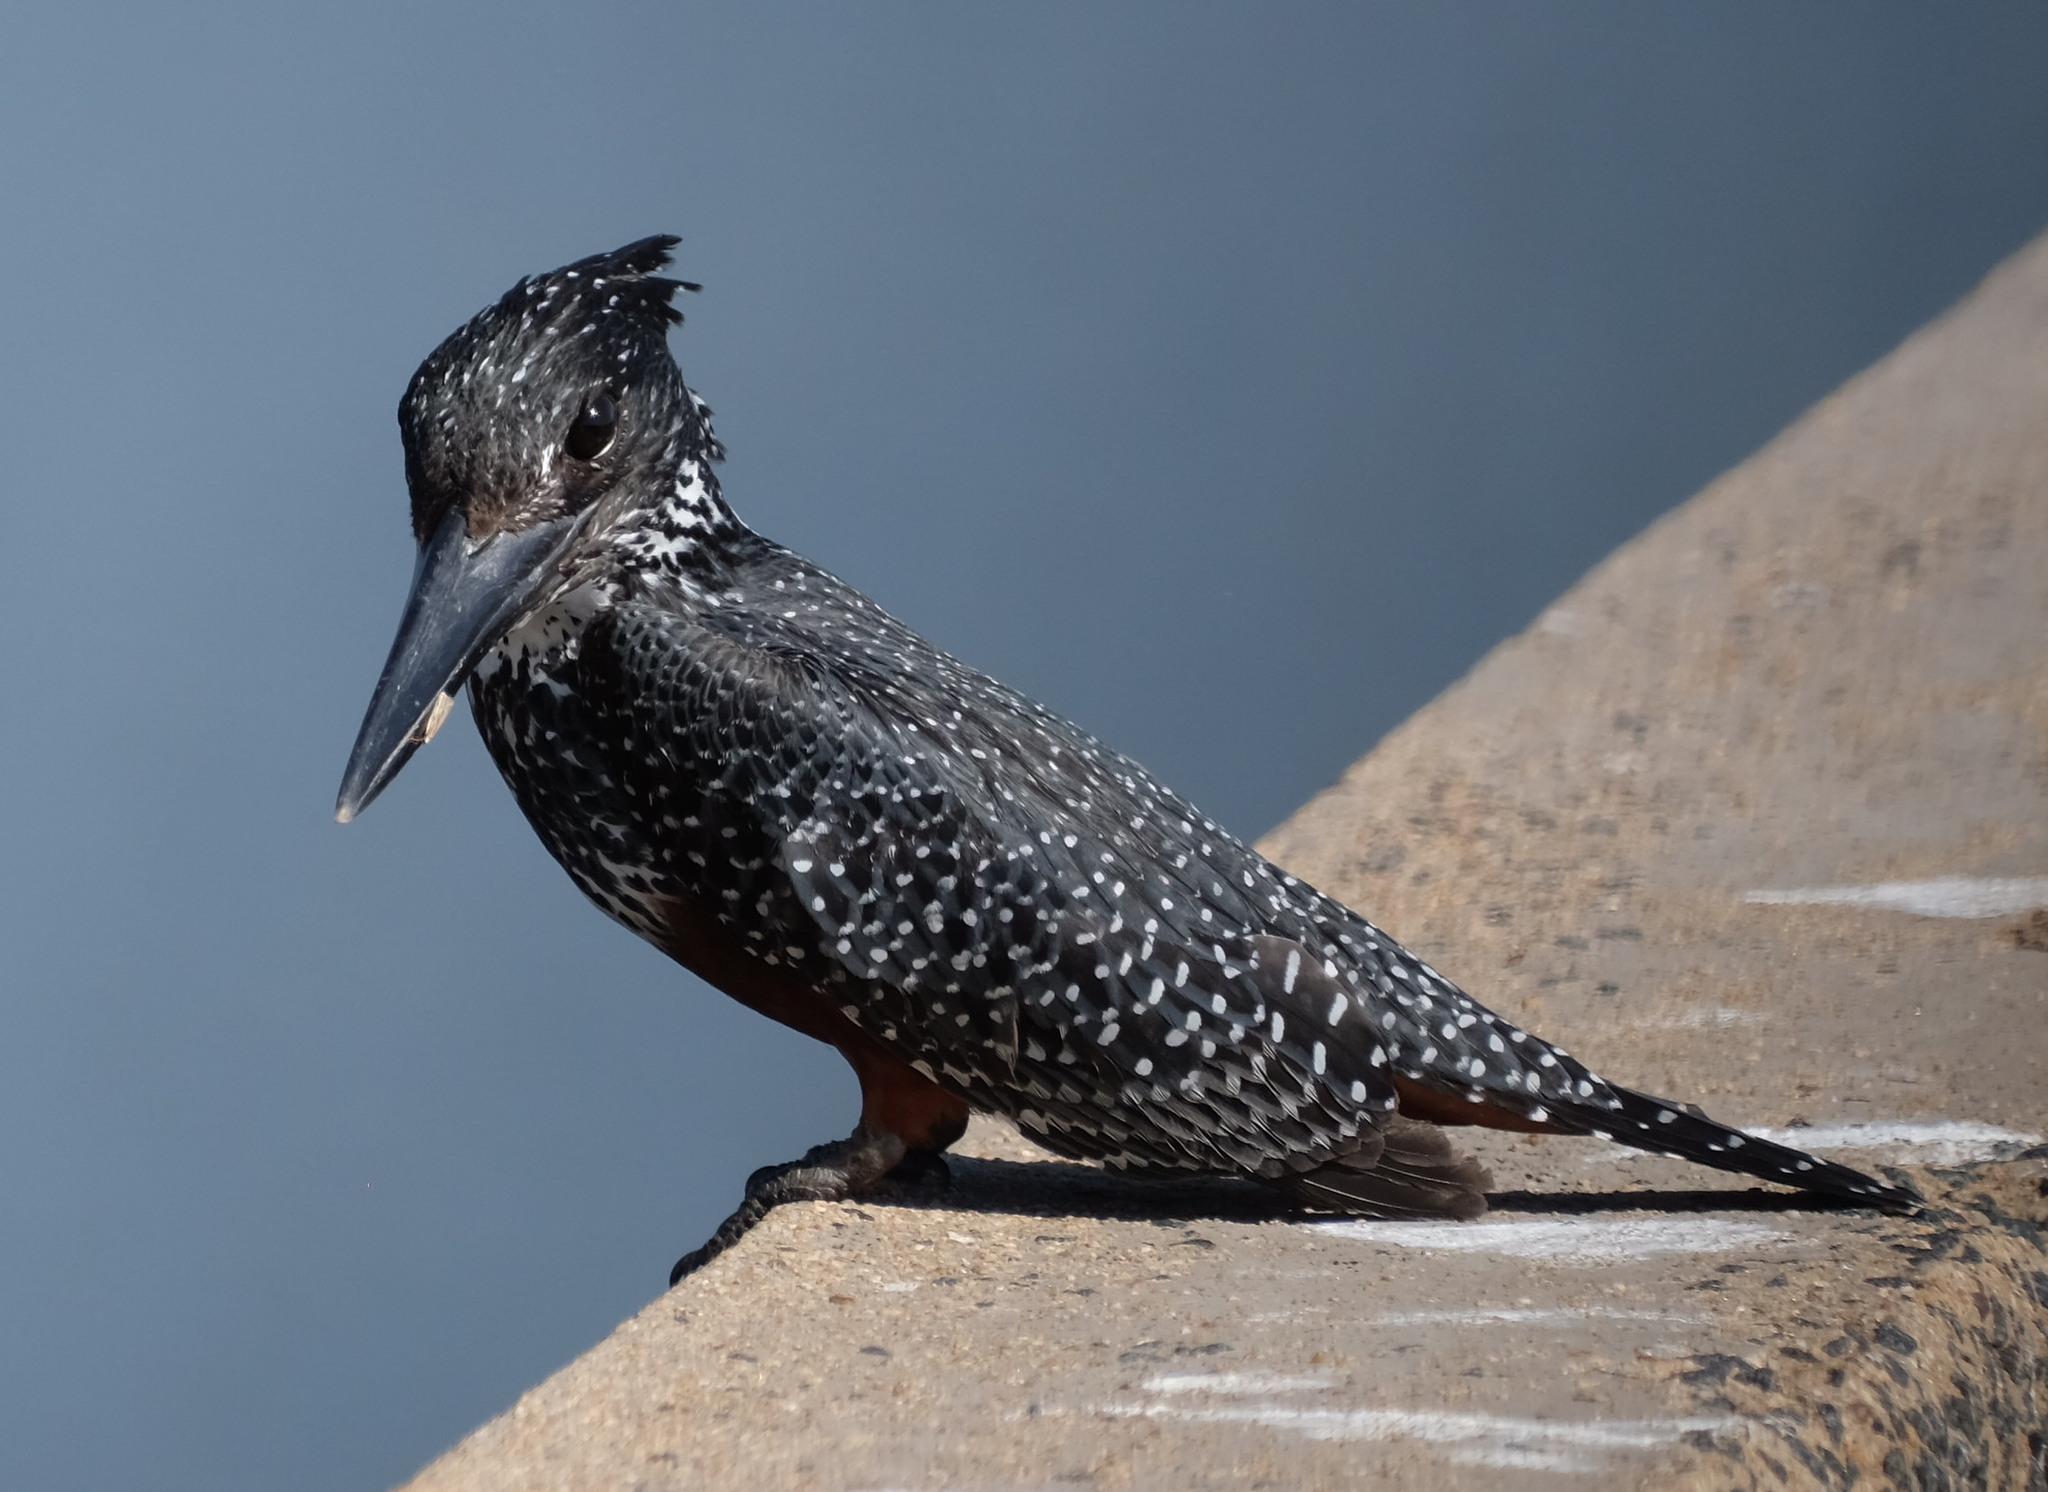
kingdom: Animalia
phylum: Chordata
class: Aves
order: Coraciiformes
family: Alcedinidae
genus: Megaceryle
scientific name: Megaceryle maxima
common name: Giant kingfisher
